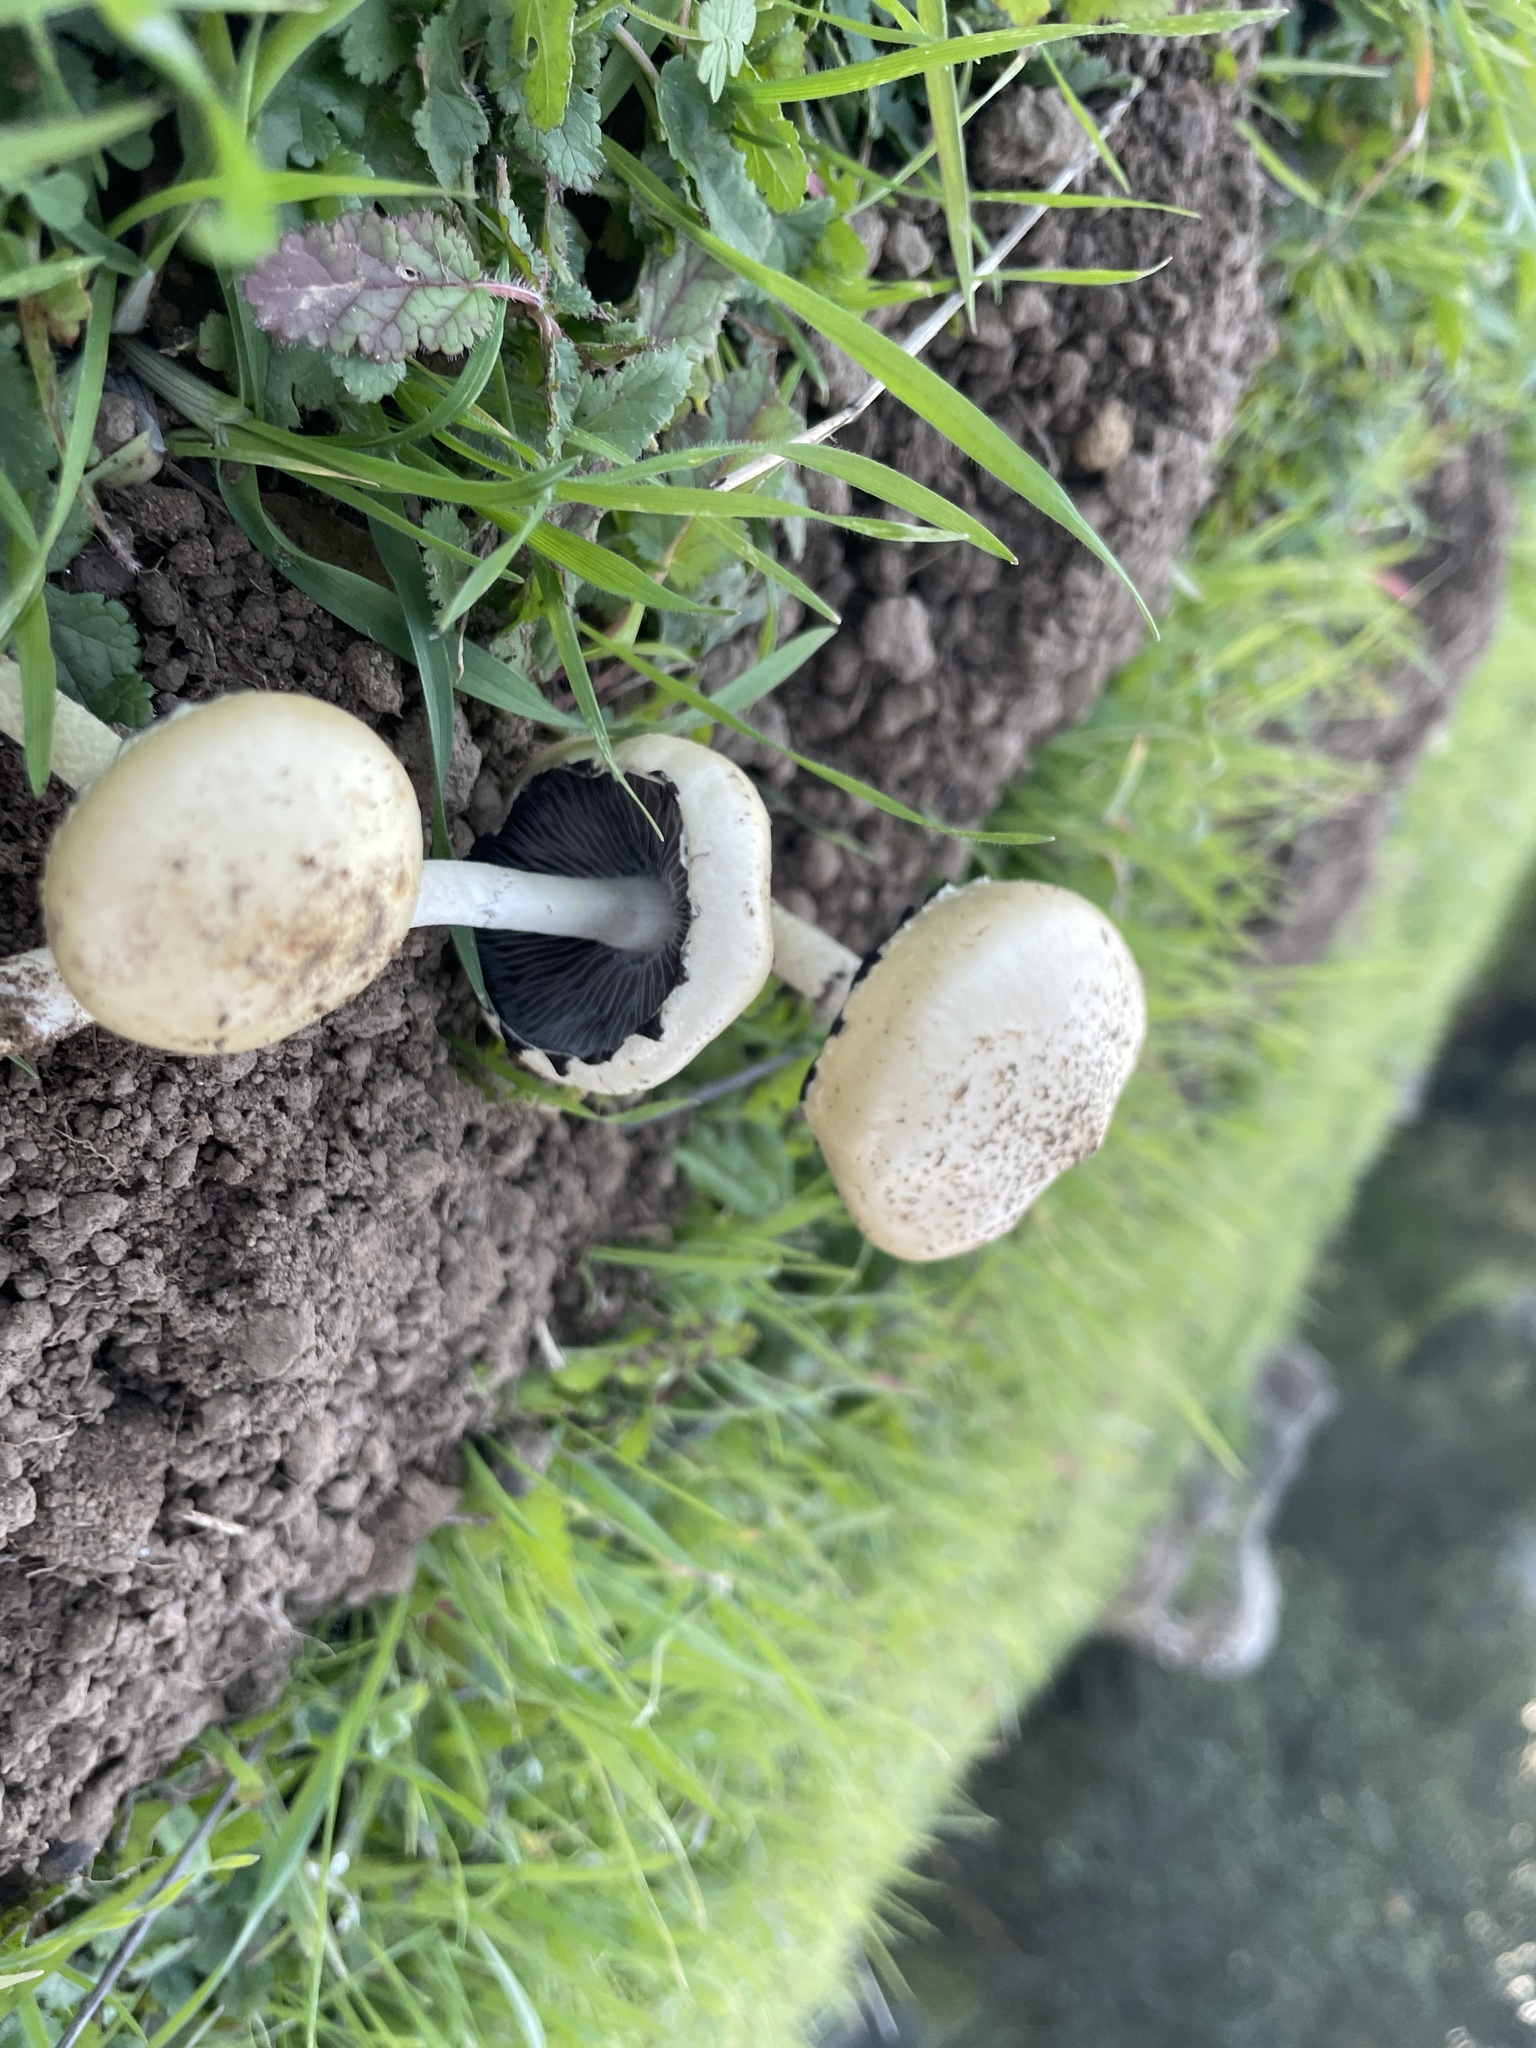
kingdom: Fungi
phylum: Basidiomycota
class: Agaricomycetes
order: Agaricales
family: Strophariaceae
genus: Protostropharia
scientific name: Protostropharia dorsipora
